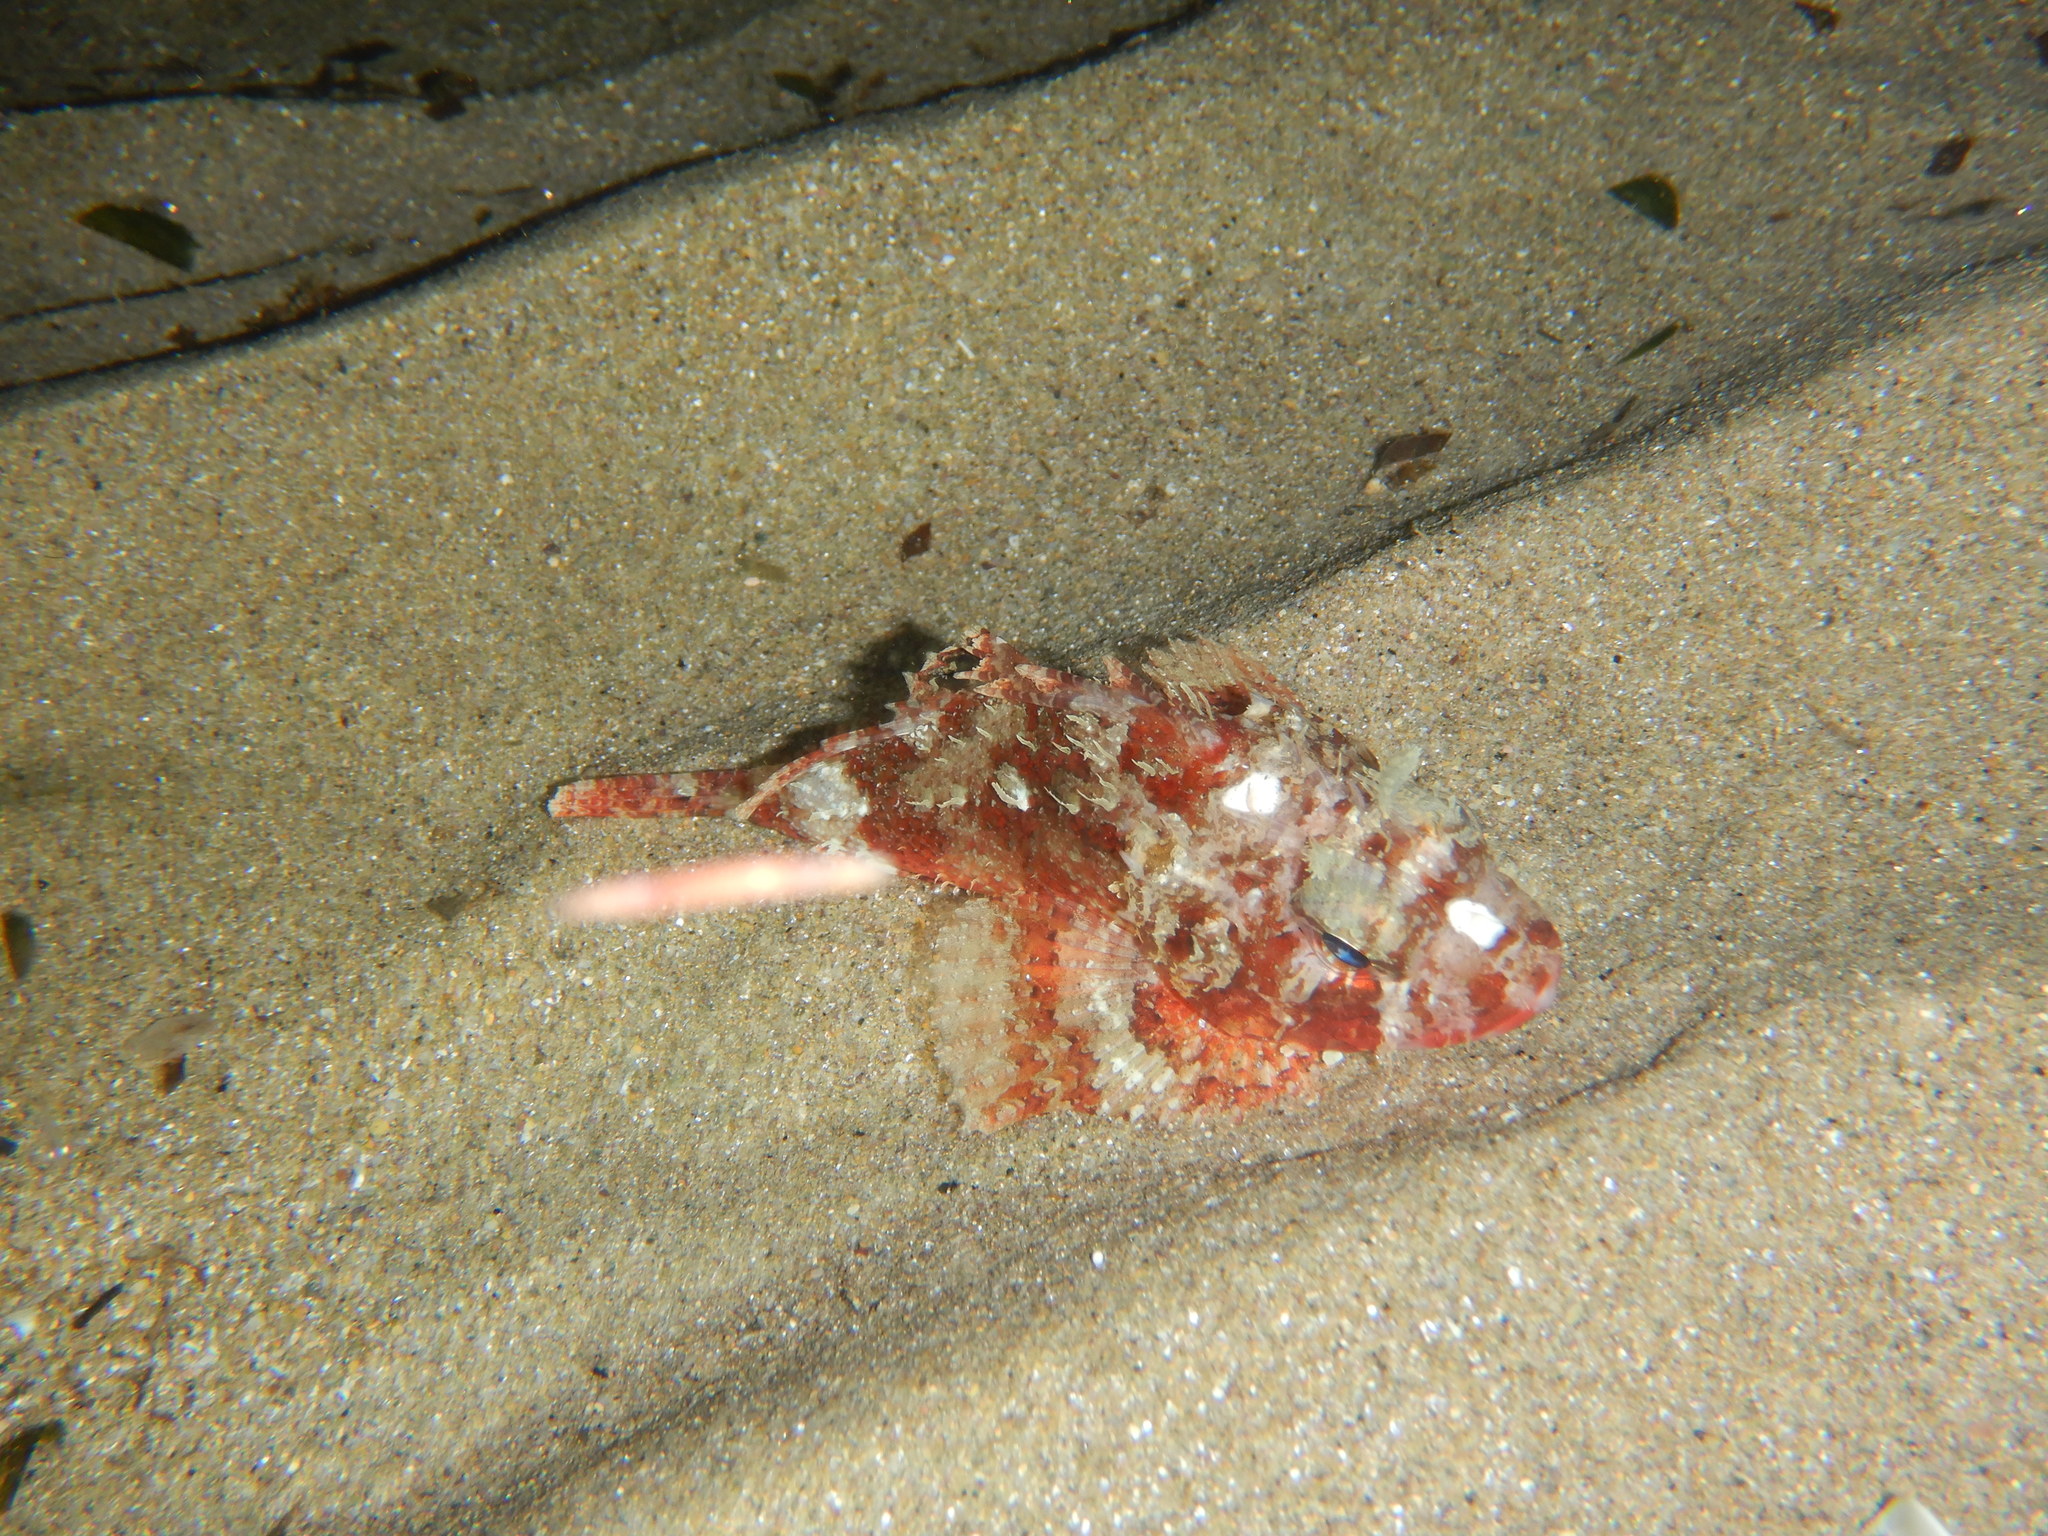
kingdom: Animalia
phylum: Chordata
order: Scorpaeniformes
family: Scorpaenidae
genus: Scorpaena
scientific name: Scorpaena notata
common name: Small red scorpionfish
